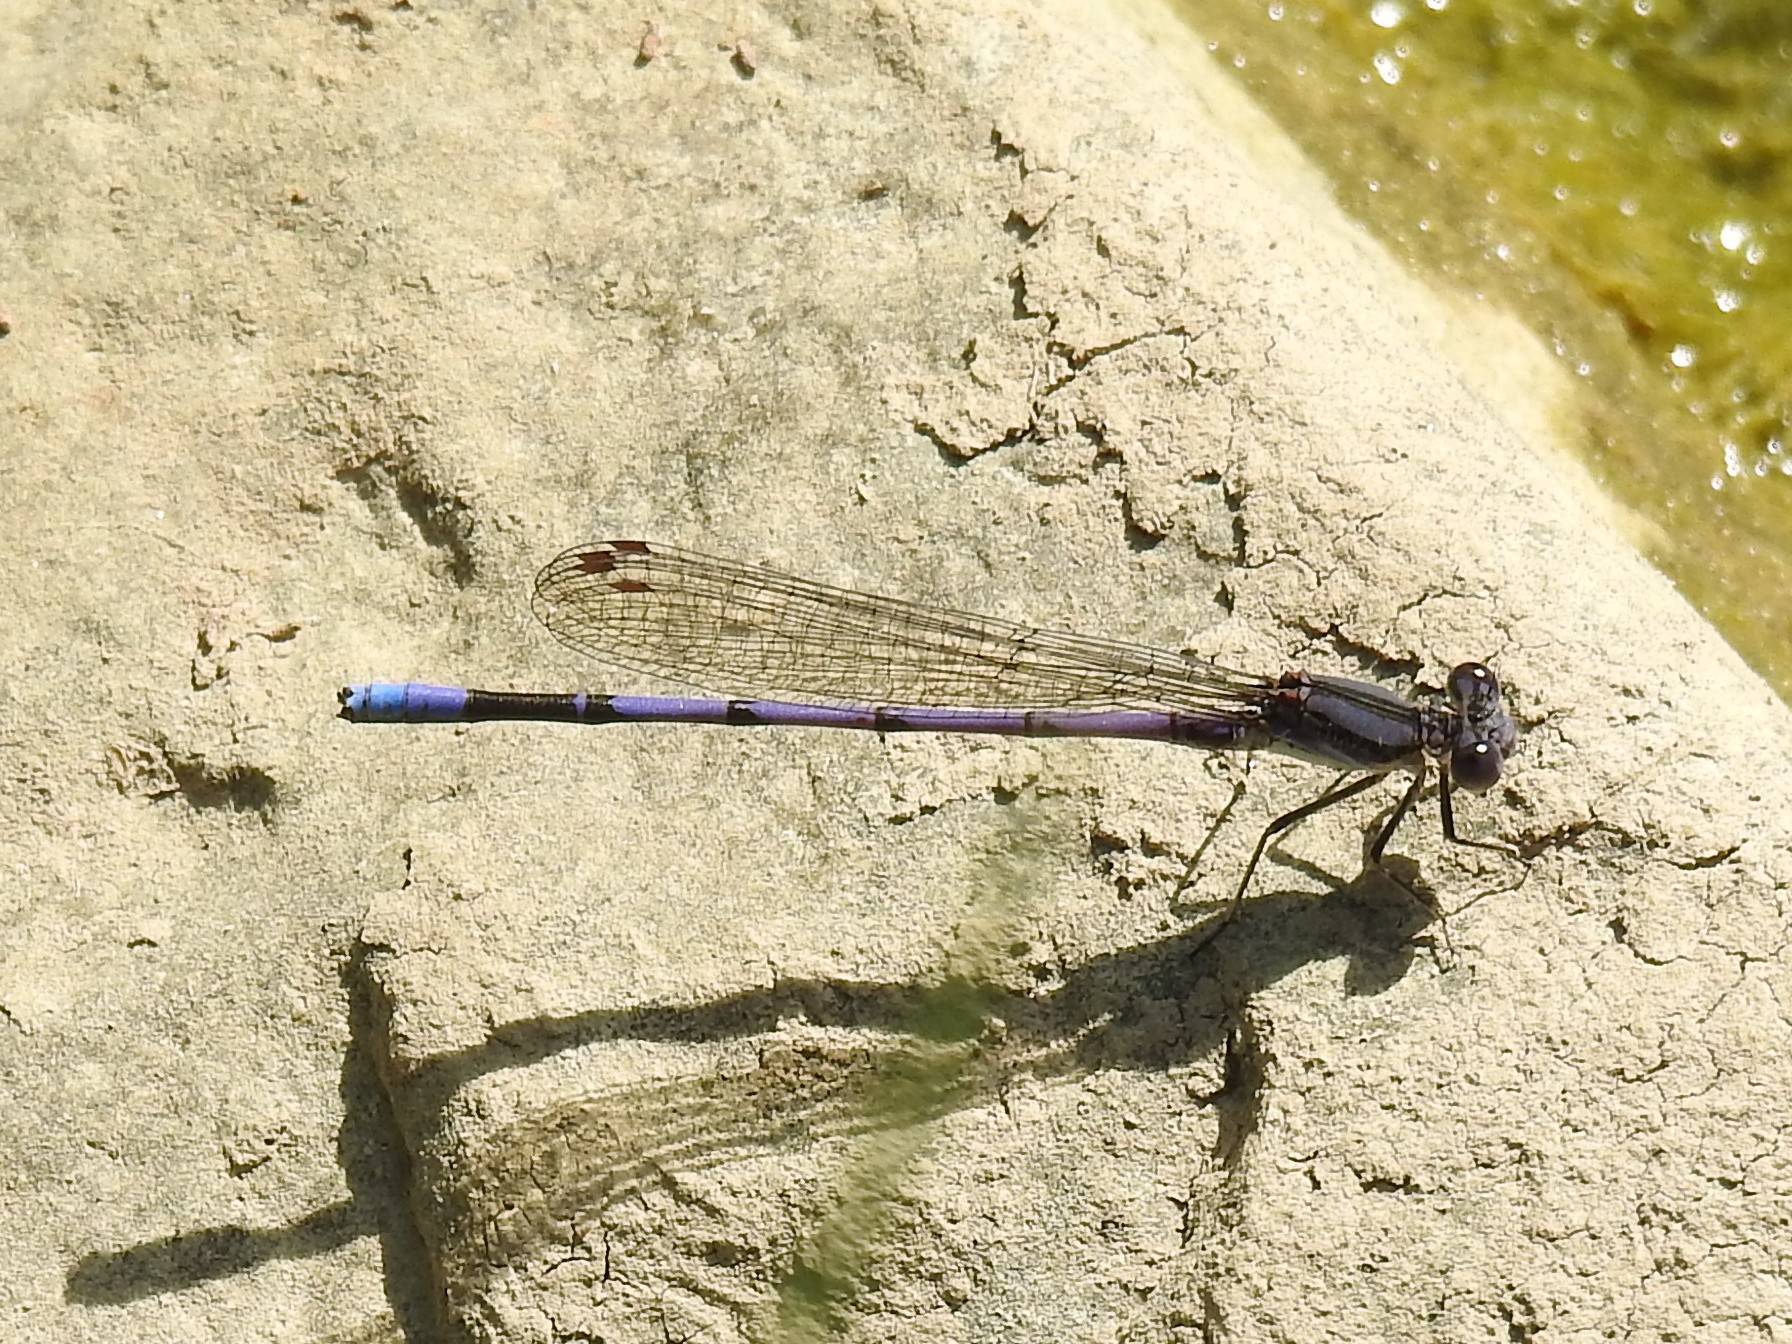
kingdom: Animalia
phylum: Arthropoda
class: Insecta
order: Odonata
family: Coenagrionidae
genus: Argia
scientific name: Argia fumipennis
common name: Variable dancer
